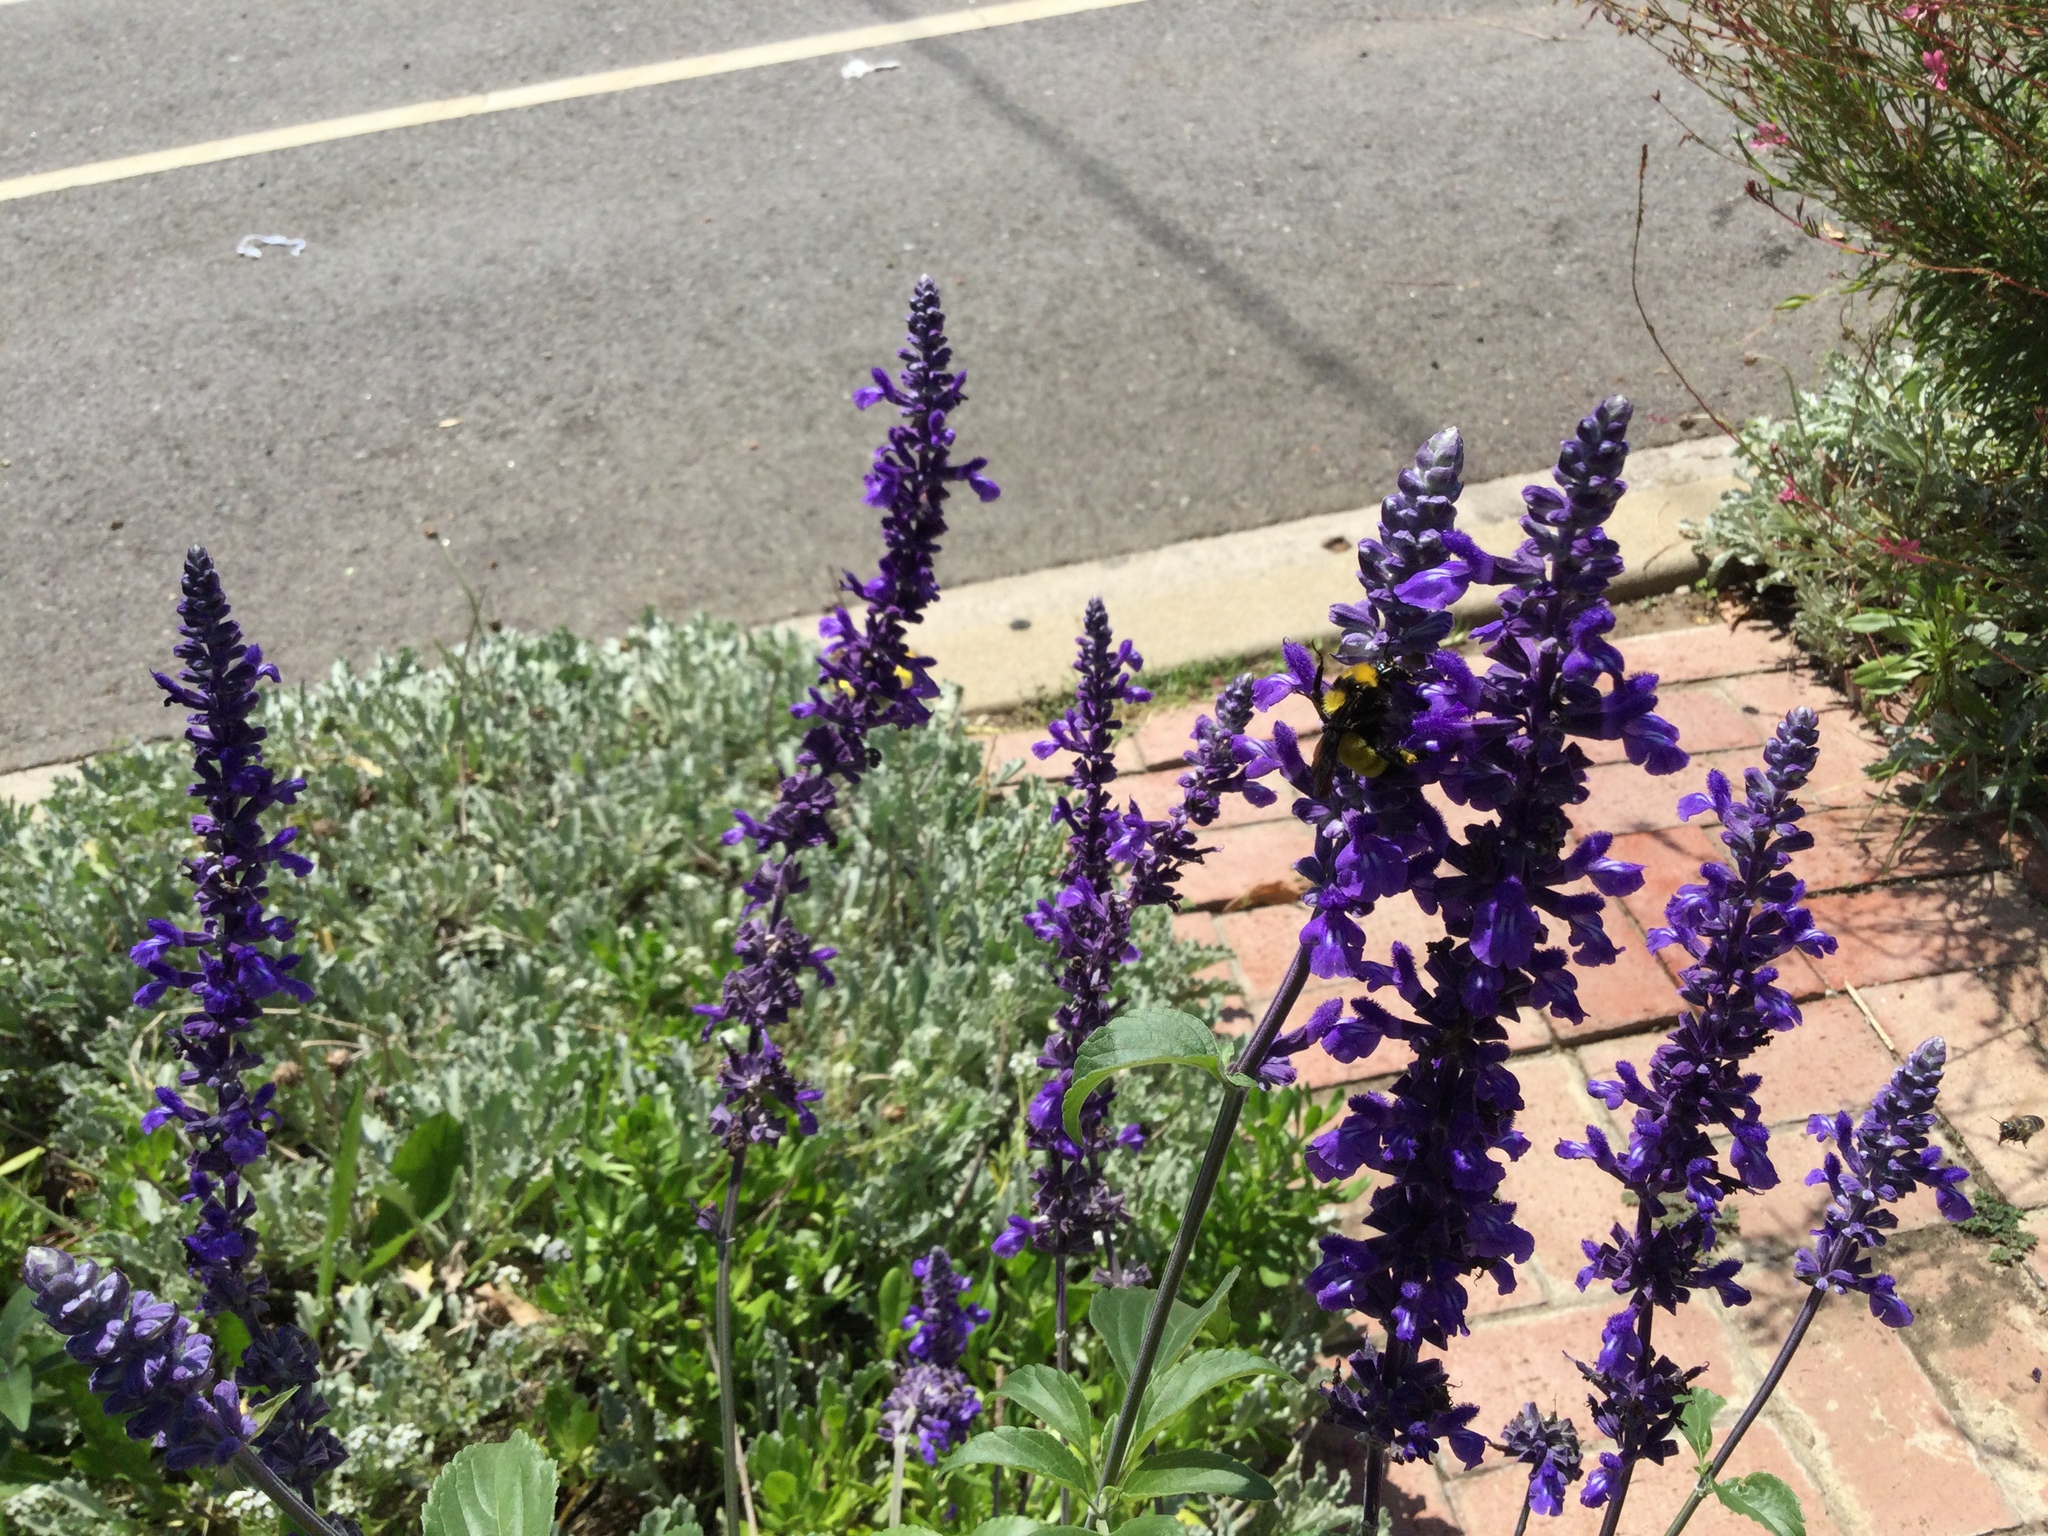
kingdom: Animalia
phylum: Arthropoda
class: Insecta
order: Hymenoptera
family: Apidae
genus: Bombus
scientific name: Bombus sonorus
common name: Sonoran bumble bee
